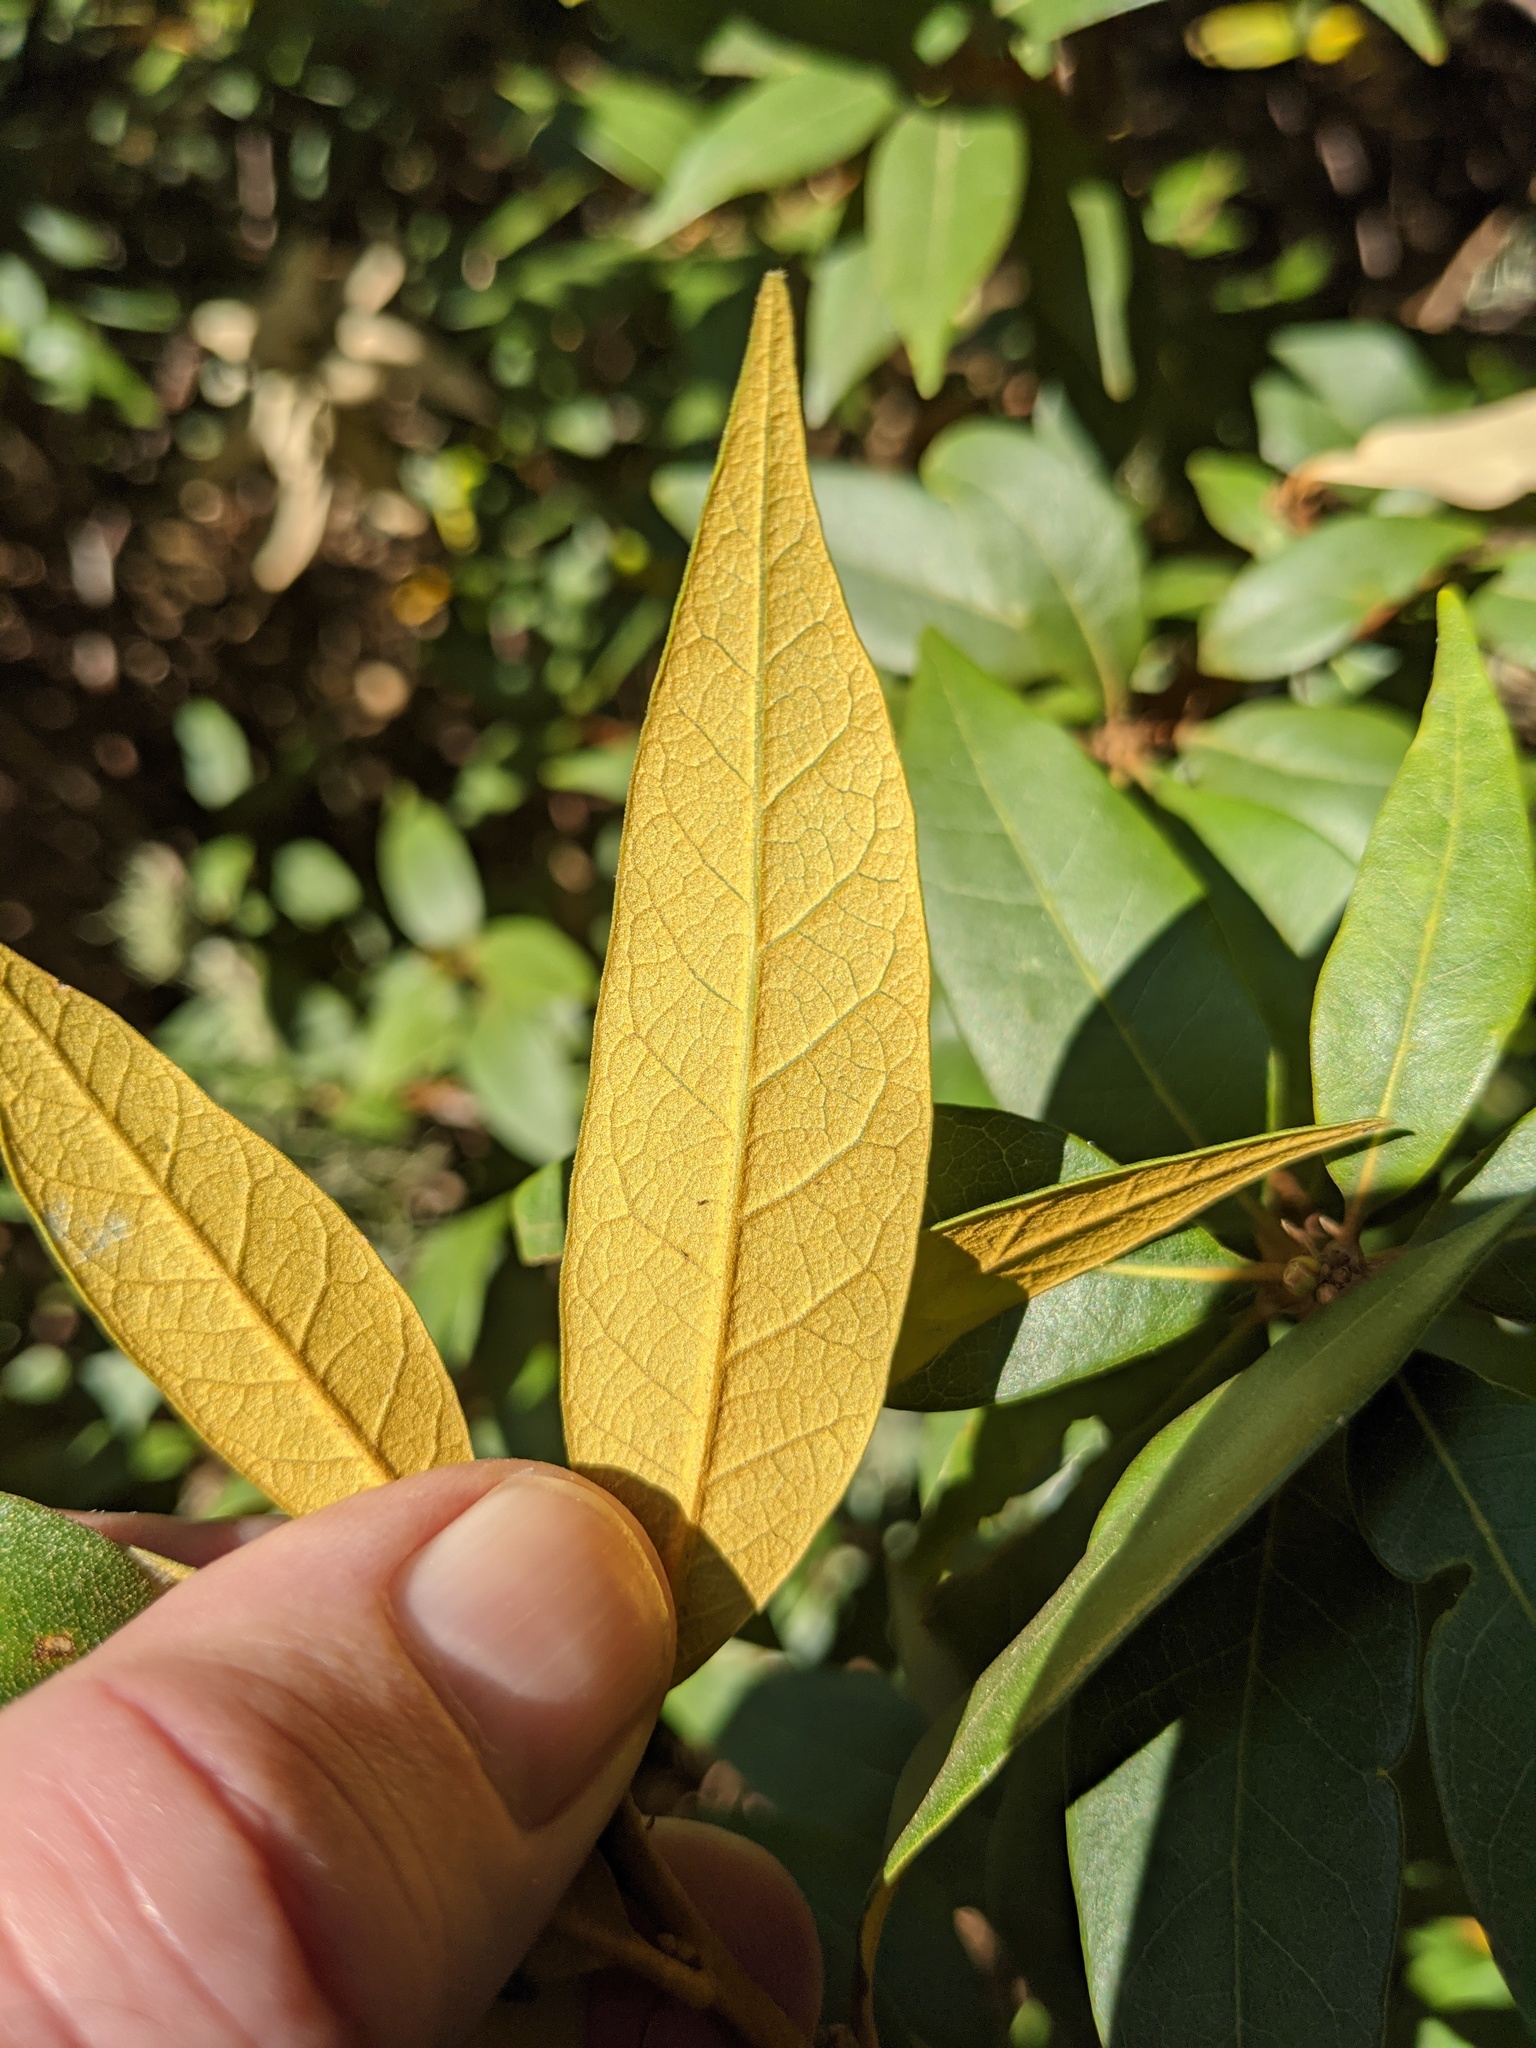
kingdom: Plantae
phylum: Tracheophyta
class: Magnoliopsida
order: Fagales
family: Fagaceae
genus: Chrysolepis
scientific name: Chrysolepis chrysophylla
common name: Giant chinquapin
